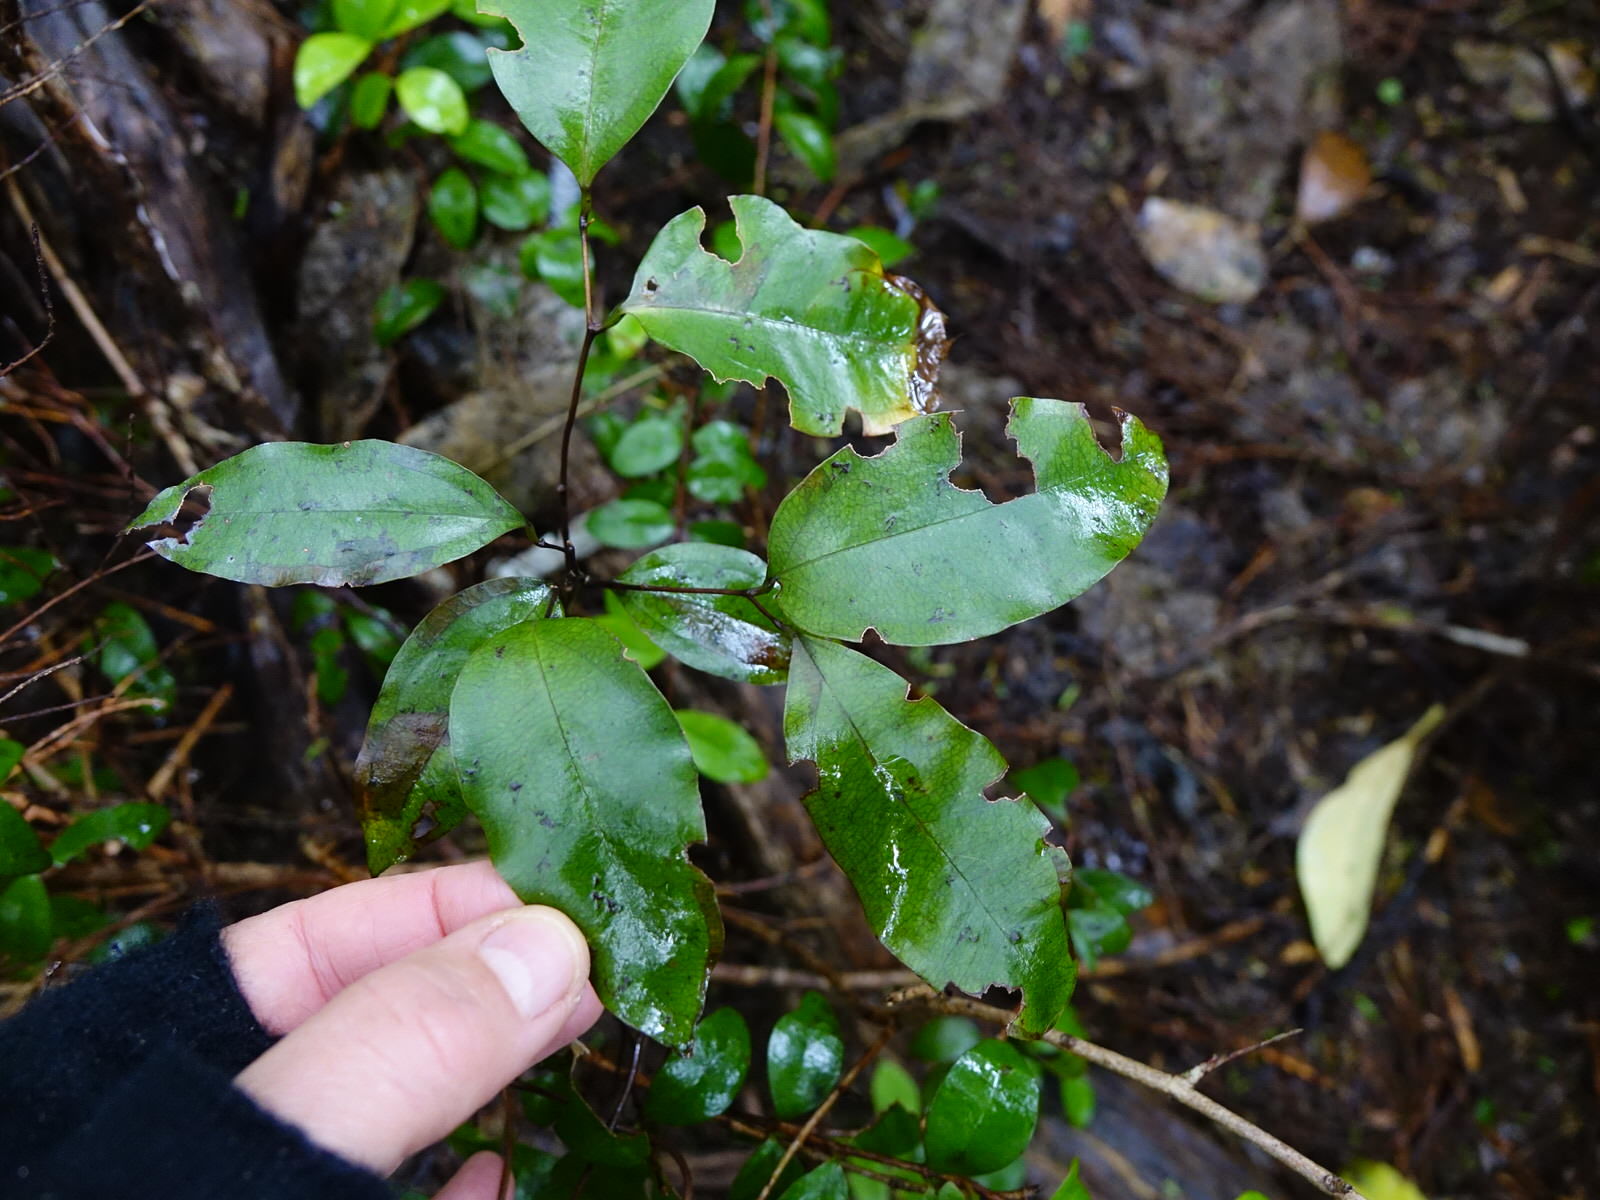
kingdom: Plantae
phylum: Tracheophyta
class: Liliopsida
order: Liliales
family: Ripogonaceae
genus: Ripogonum
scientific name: Ripogonum scandens
